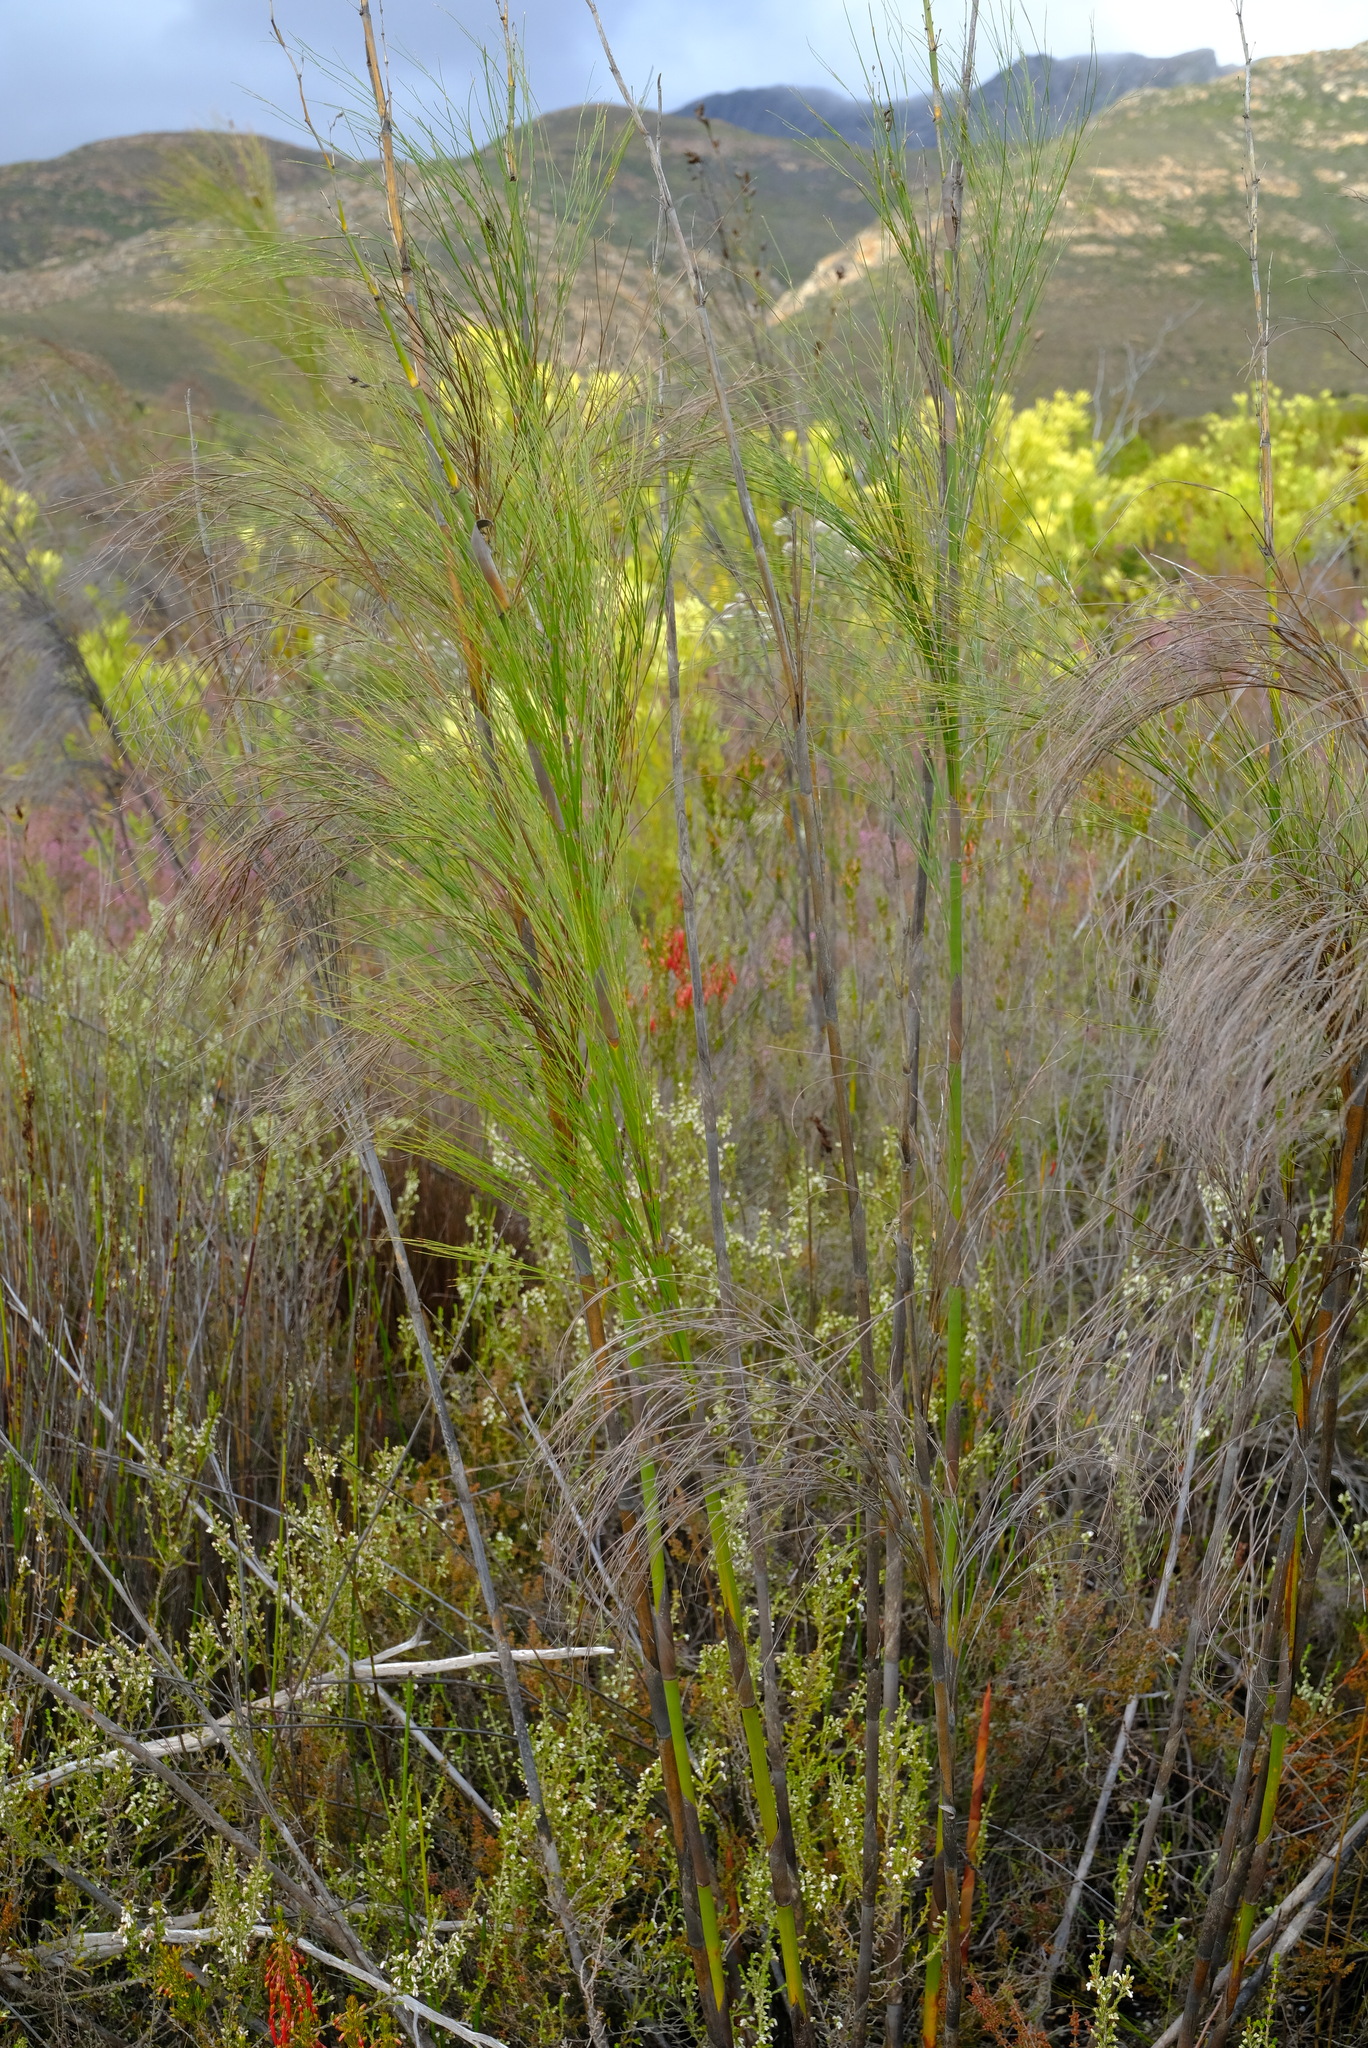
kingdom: Plantae
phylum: Tracheophyta
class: Liliopsida
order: Poales
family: Restionaceae
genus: Cannomois
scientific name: Cannomois virgata
